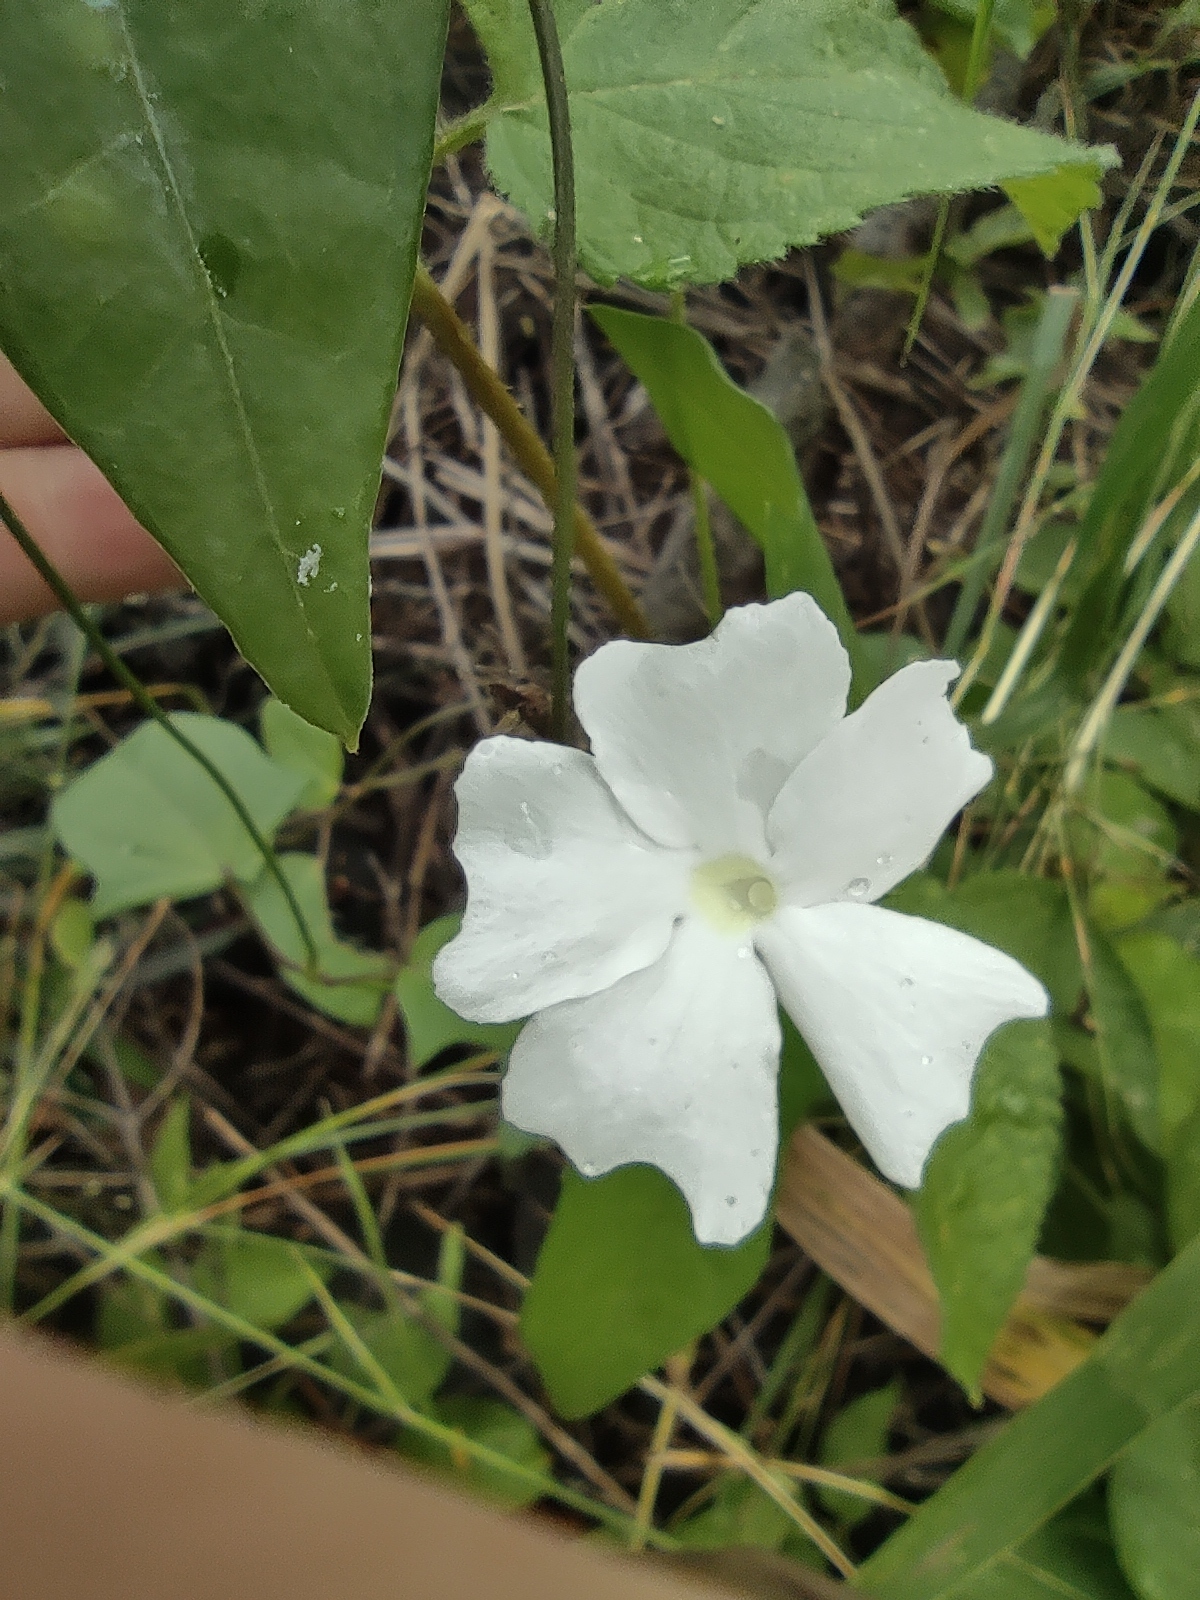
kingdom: Plantae
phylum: Tracheophyta
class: Magnoliopsida
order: Lamiales
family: Acanthaceae
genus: Thunbergia
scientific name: Thunbergia fragrans
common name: Whitelady
